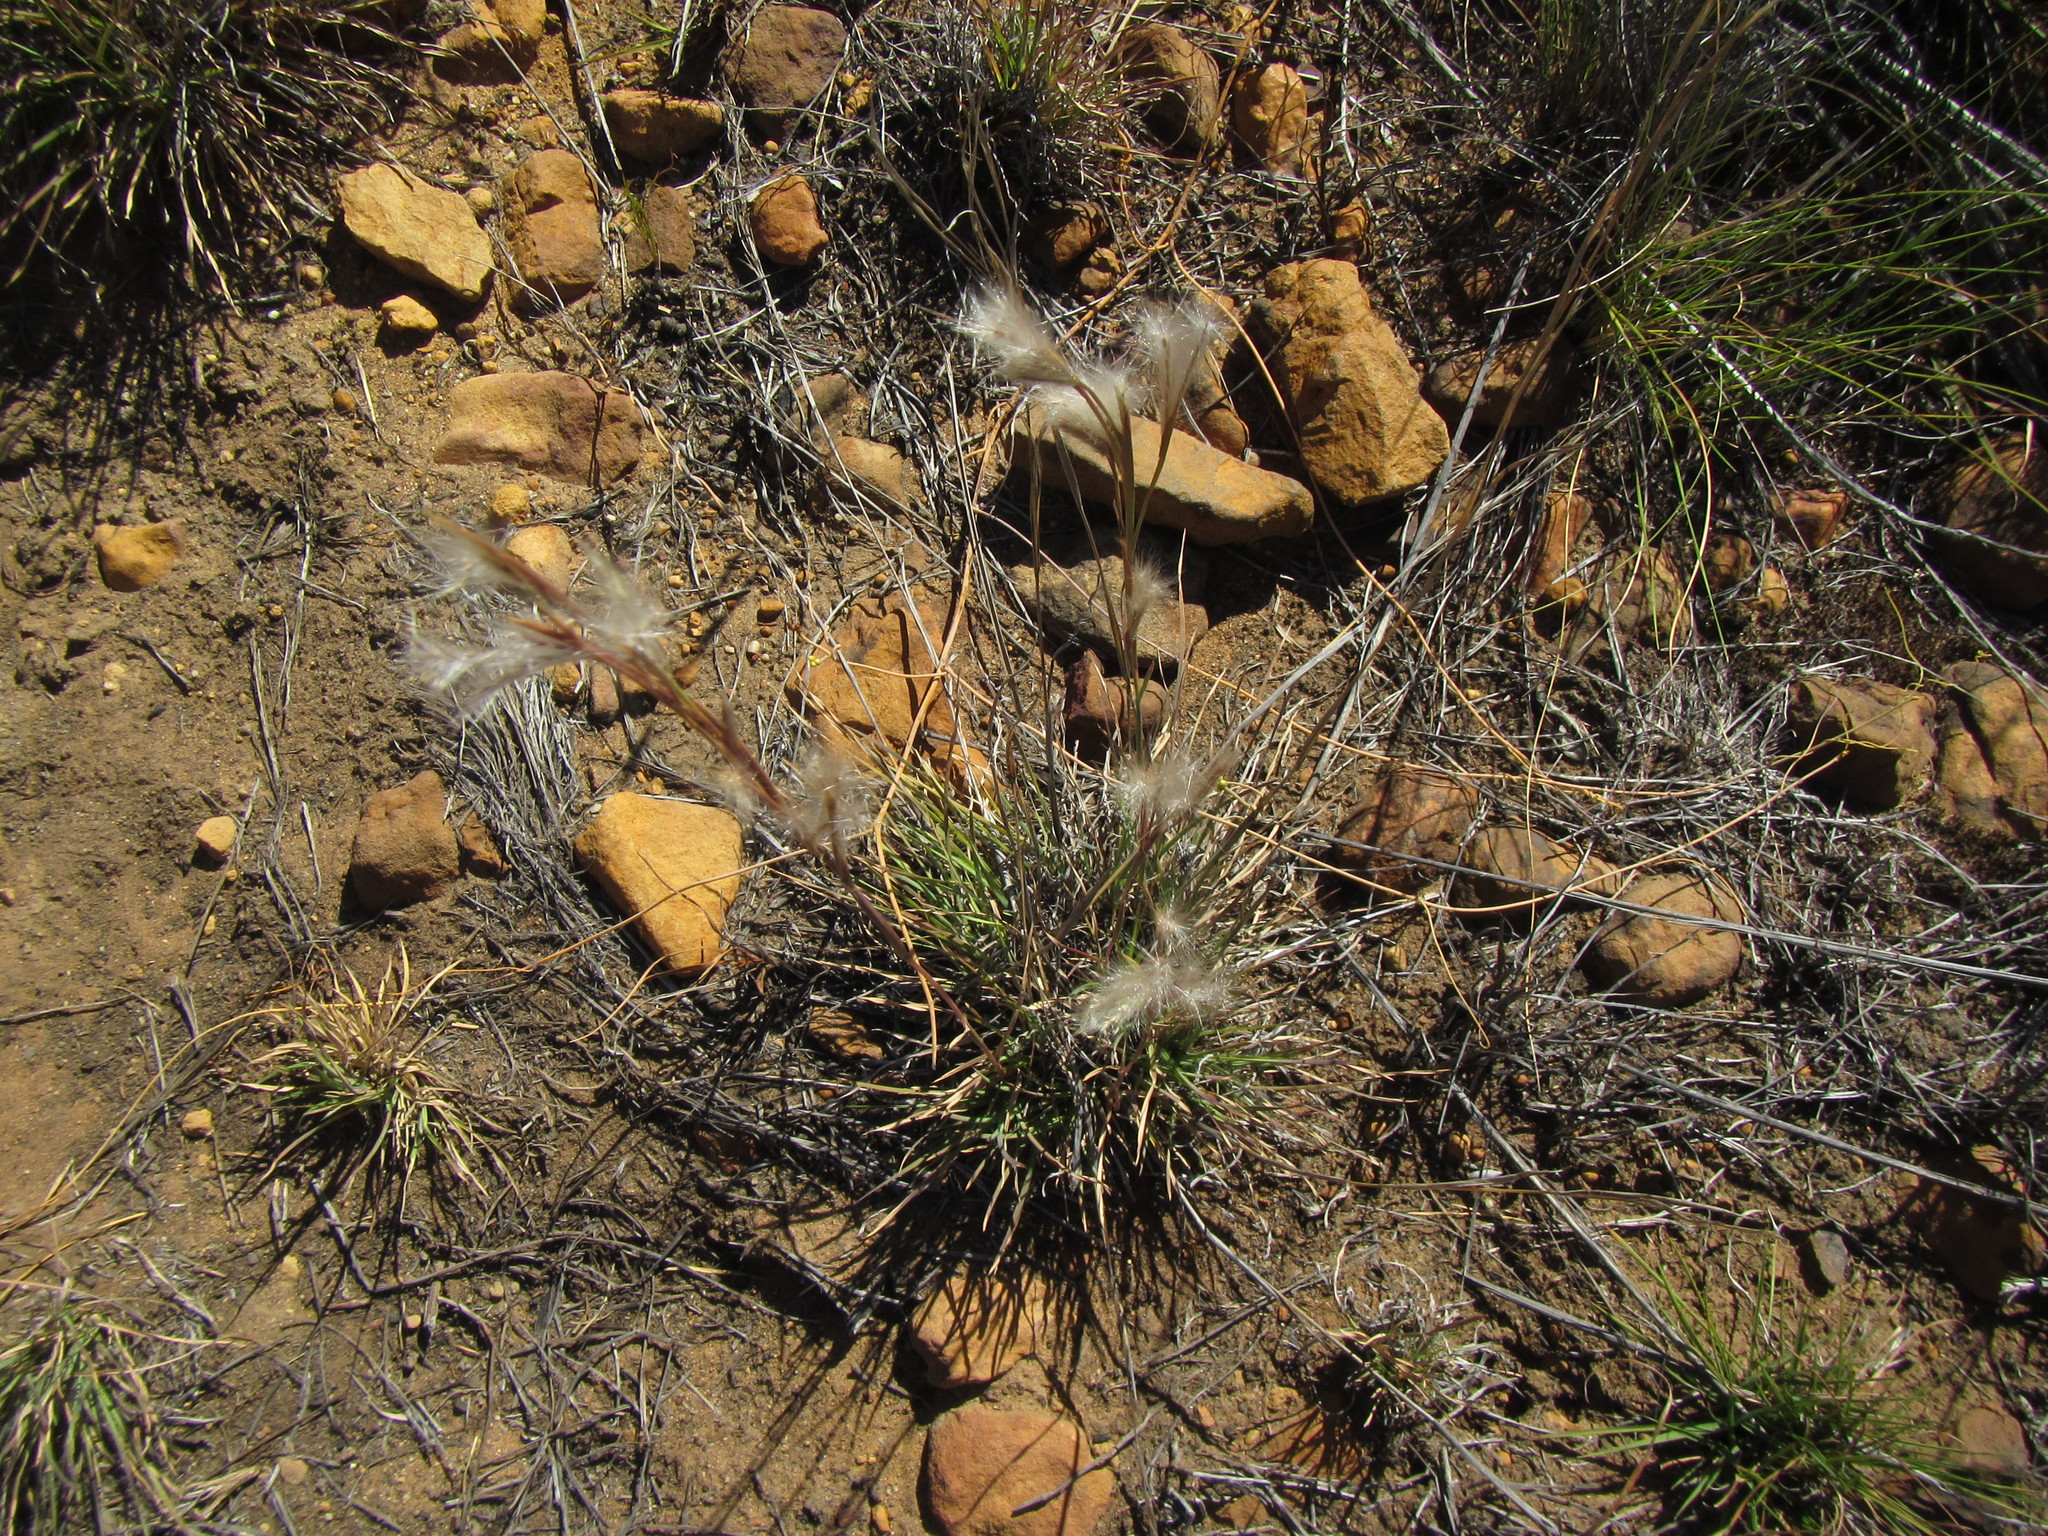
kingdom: Plantae
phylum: Tracheophyta
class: Liliopsida
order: Poales
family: Poaceae
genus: Andropogon
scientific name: Andropogon eucomus
